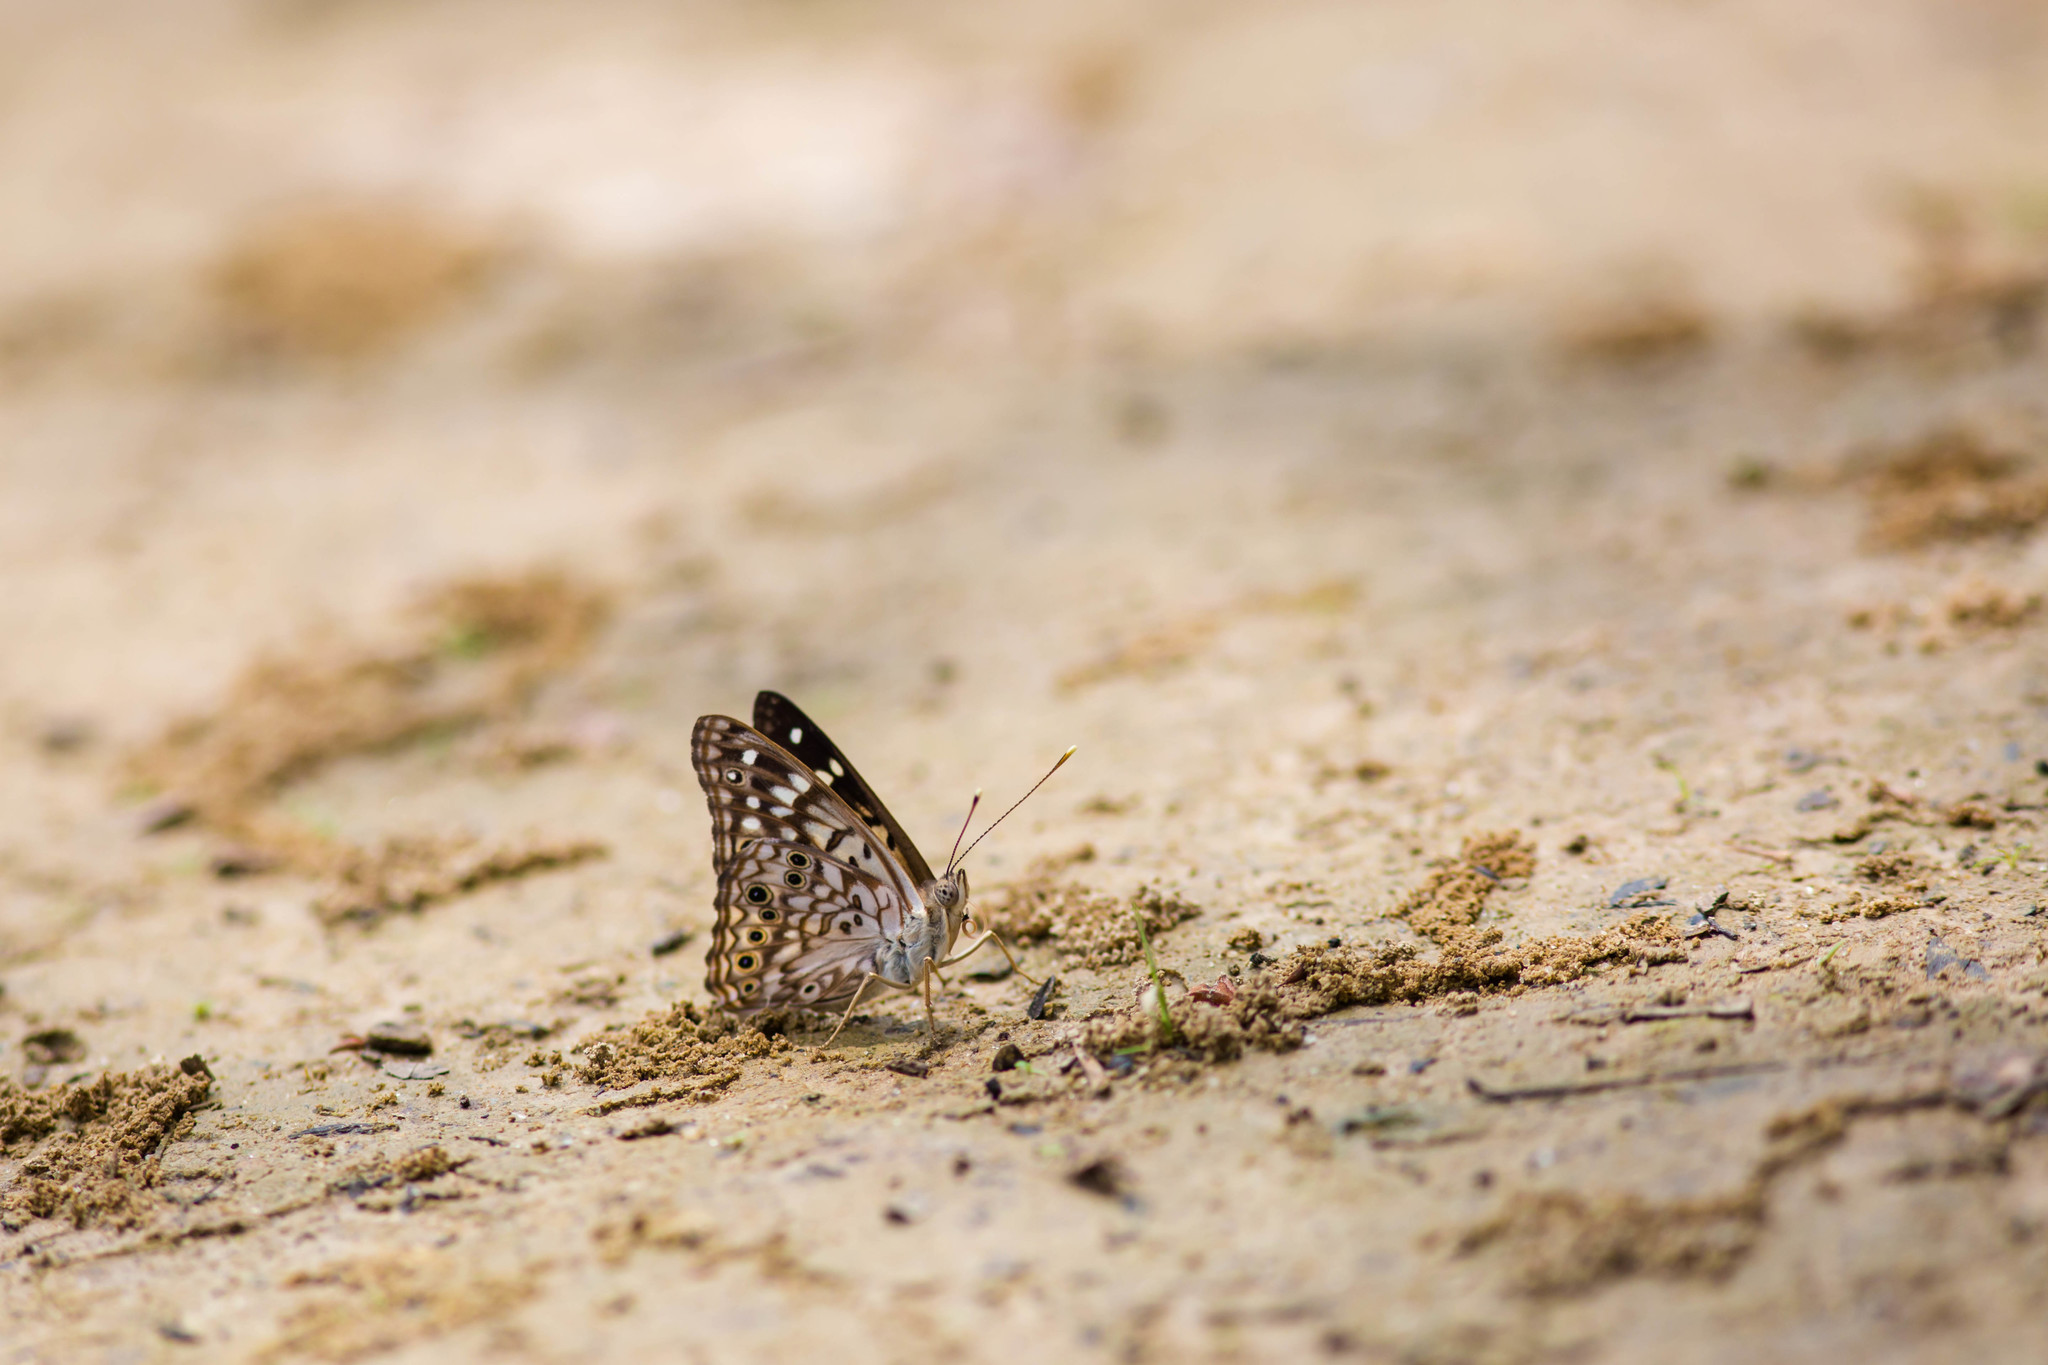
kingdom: Animalia
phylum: Arthropoda
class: Insecta
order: Lepidoptera
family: Nymphalidae
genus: Asterocampa
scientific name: Asterocampa celtis
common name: Hackberry emperor
